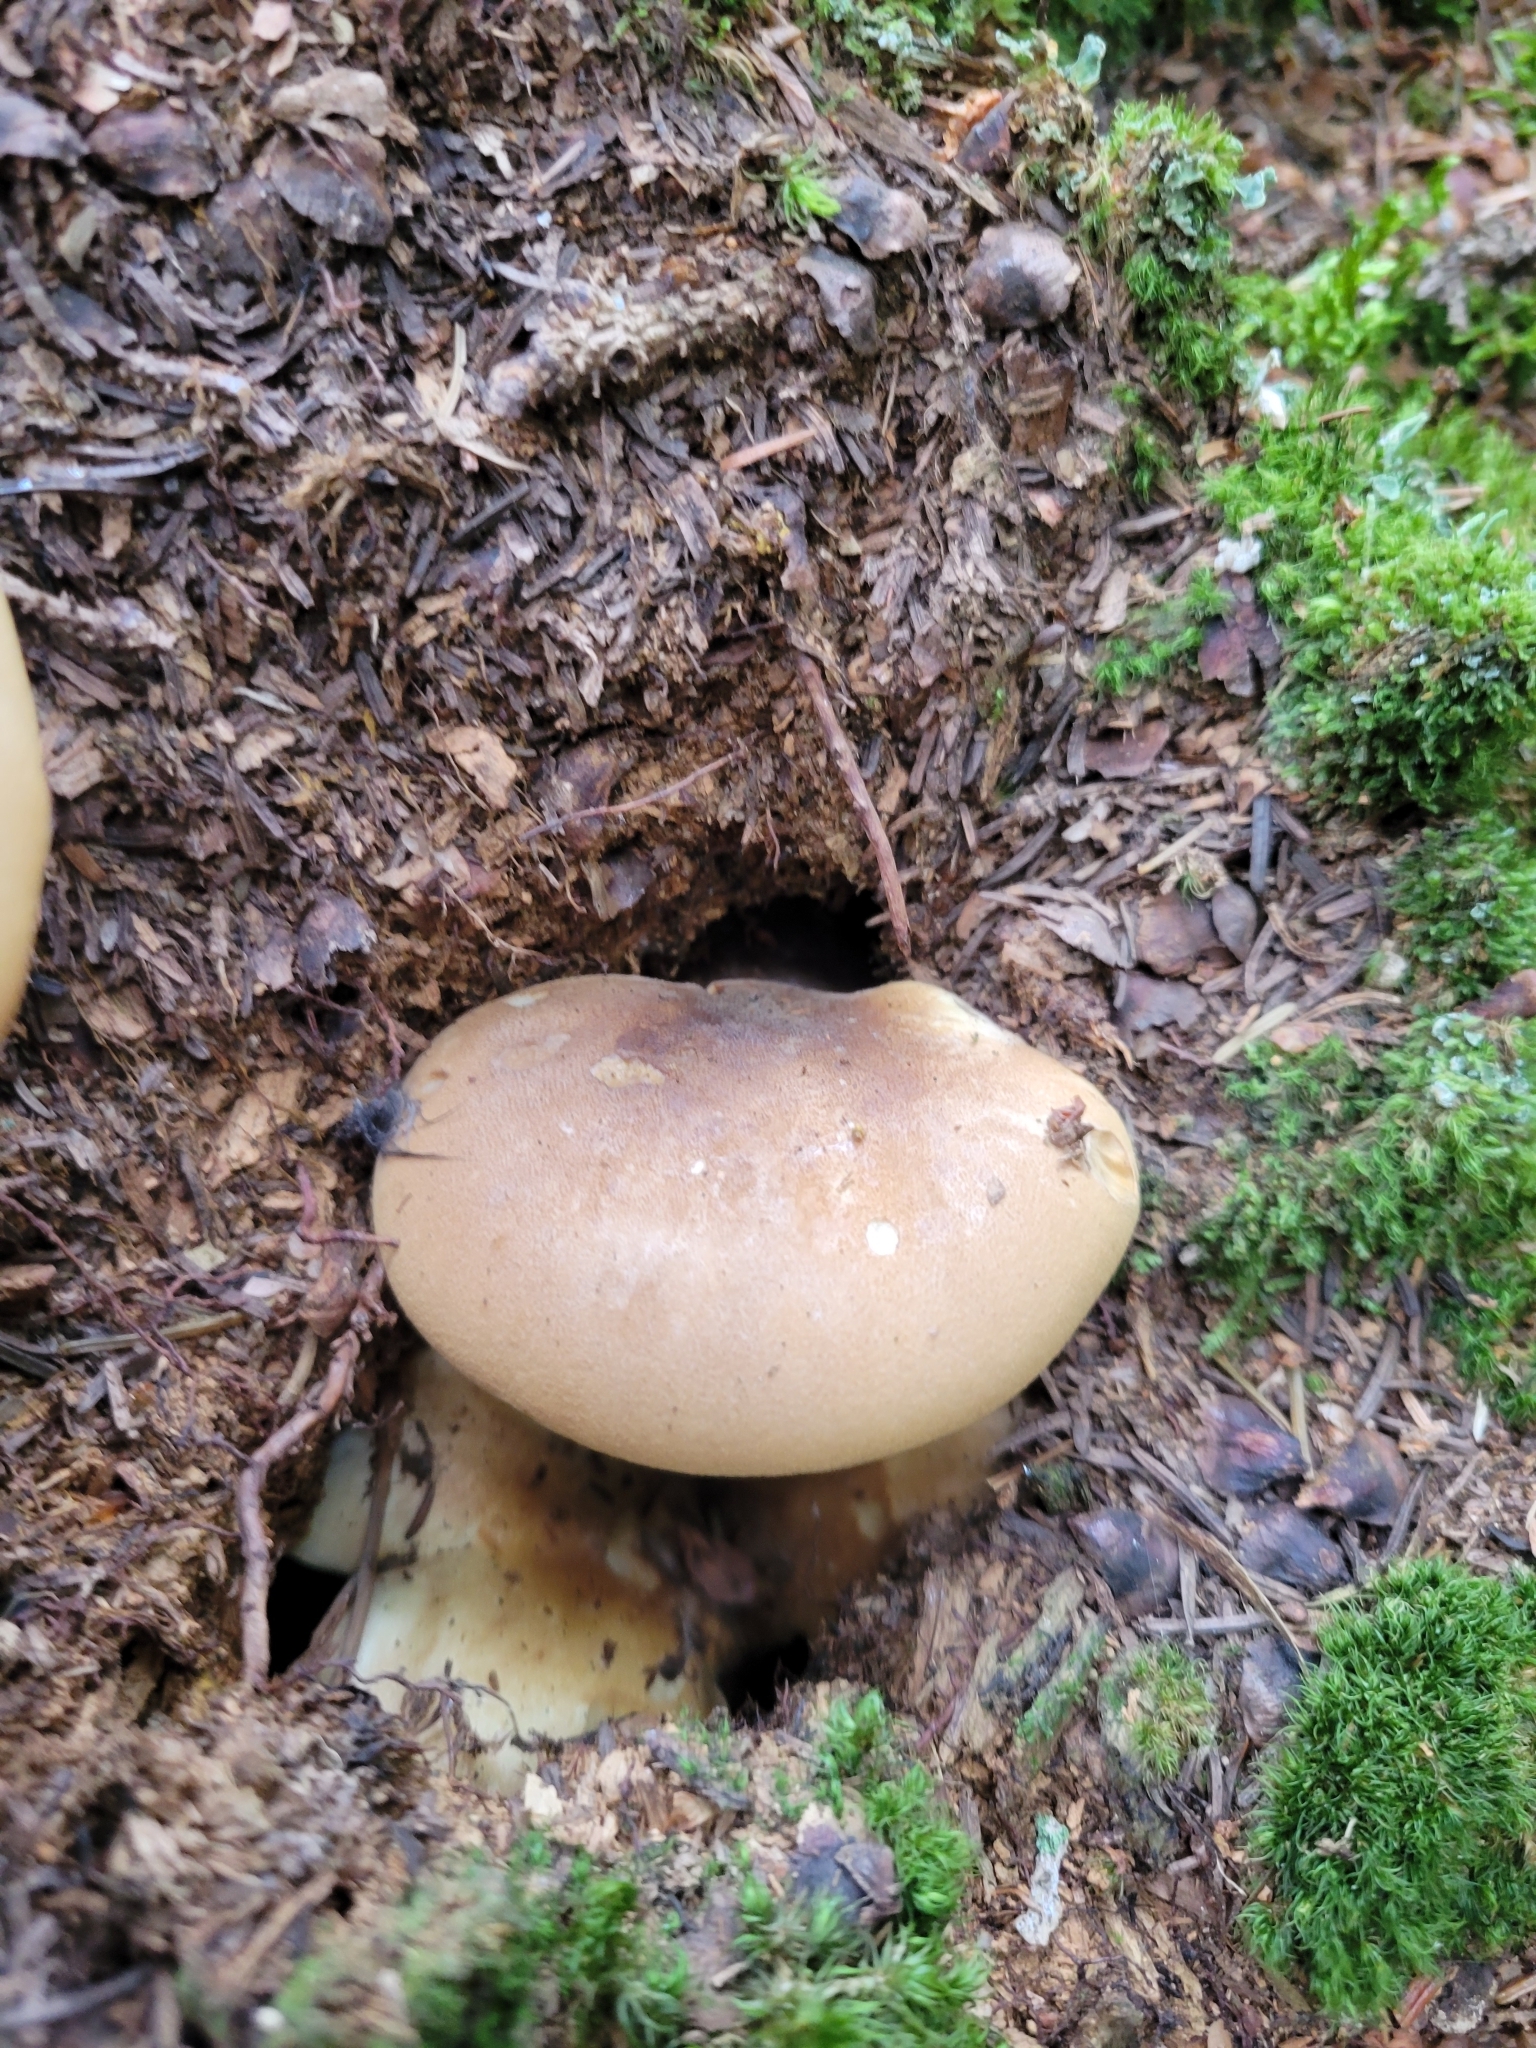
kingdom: Fungi
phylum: Basidiomycota
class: Agaricomycetes
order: Boletales
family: Tapinellaceae
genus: Tapinella
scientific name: Tapinella atrotomentosa
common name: Velvet rollrim
